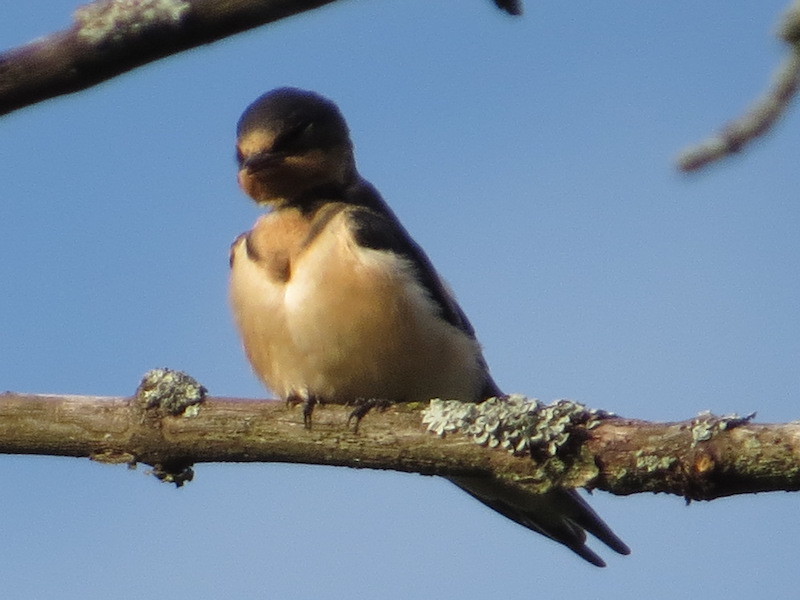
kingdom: Animalia
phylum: Chordata
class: Aves
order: Passeriformes
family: Hirundinidae
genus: Hirundo
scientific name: Hirundo rustica
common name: Barn swallow
